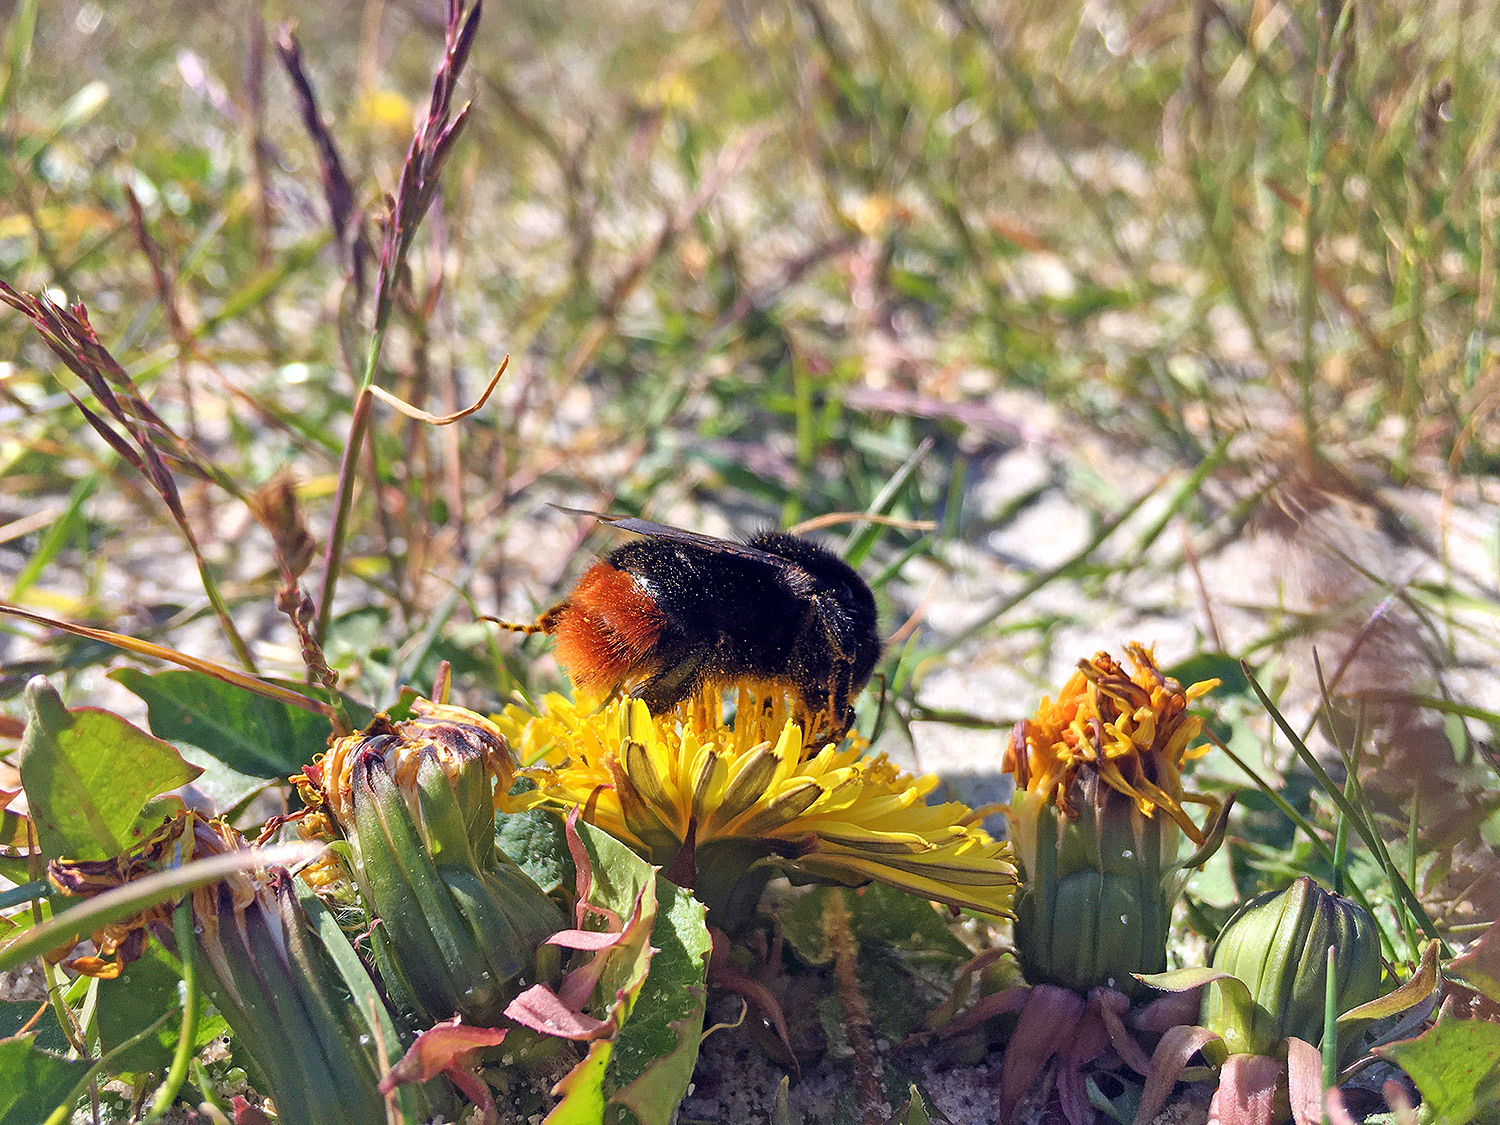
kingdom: Animalia
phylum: Arthropoda
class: Insecta
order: Hymenoptera
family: Apidae
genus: Bombus
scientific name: Bombus lapidarius
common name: Large red-tailed humble-bee
